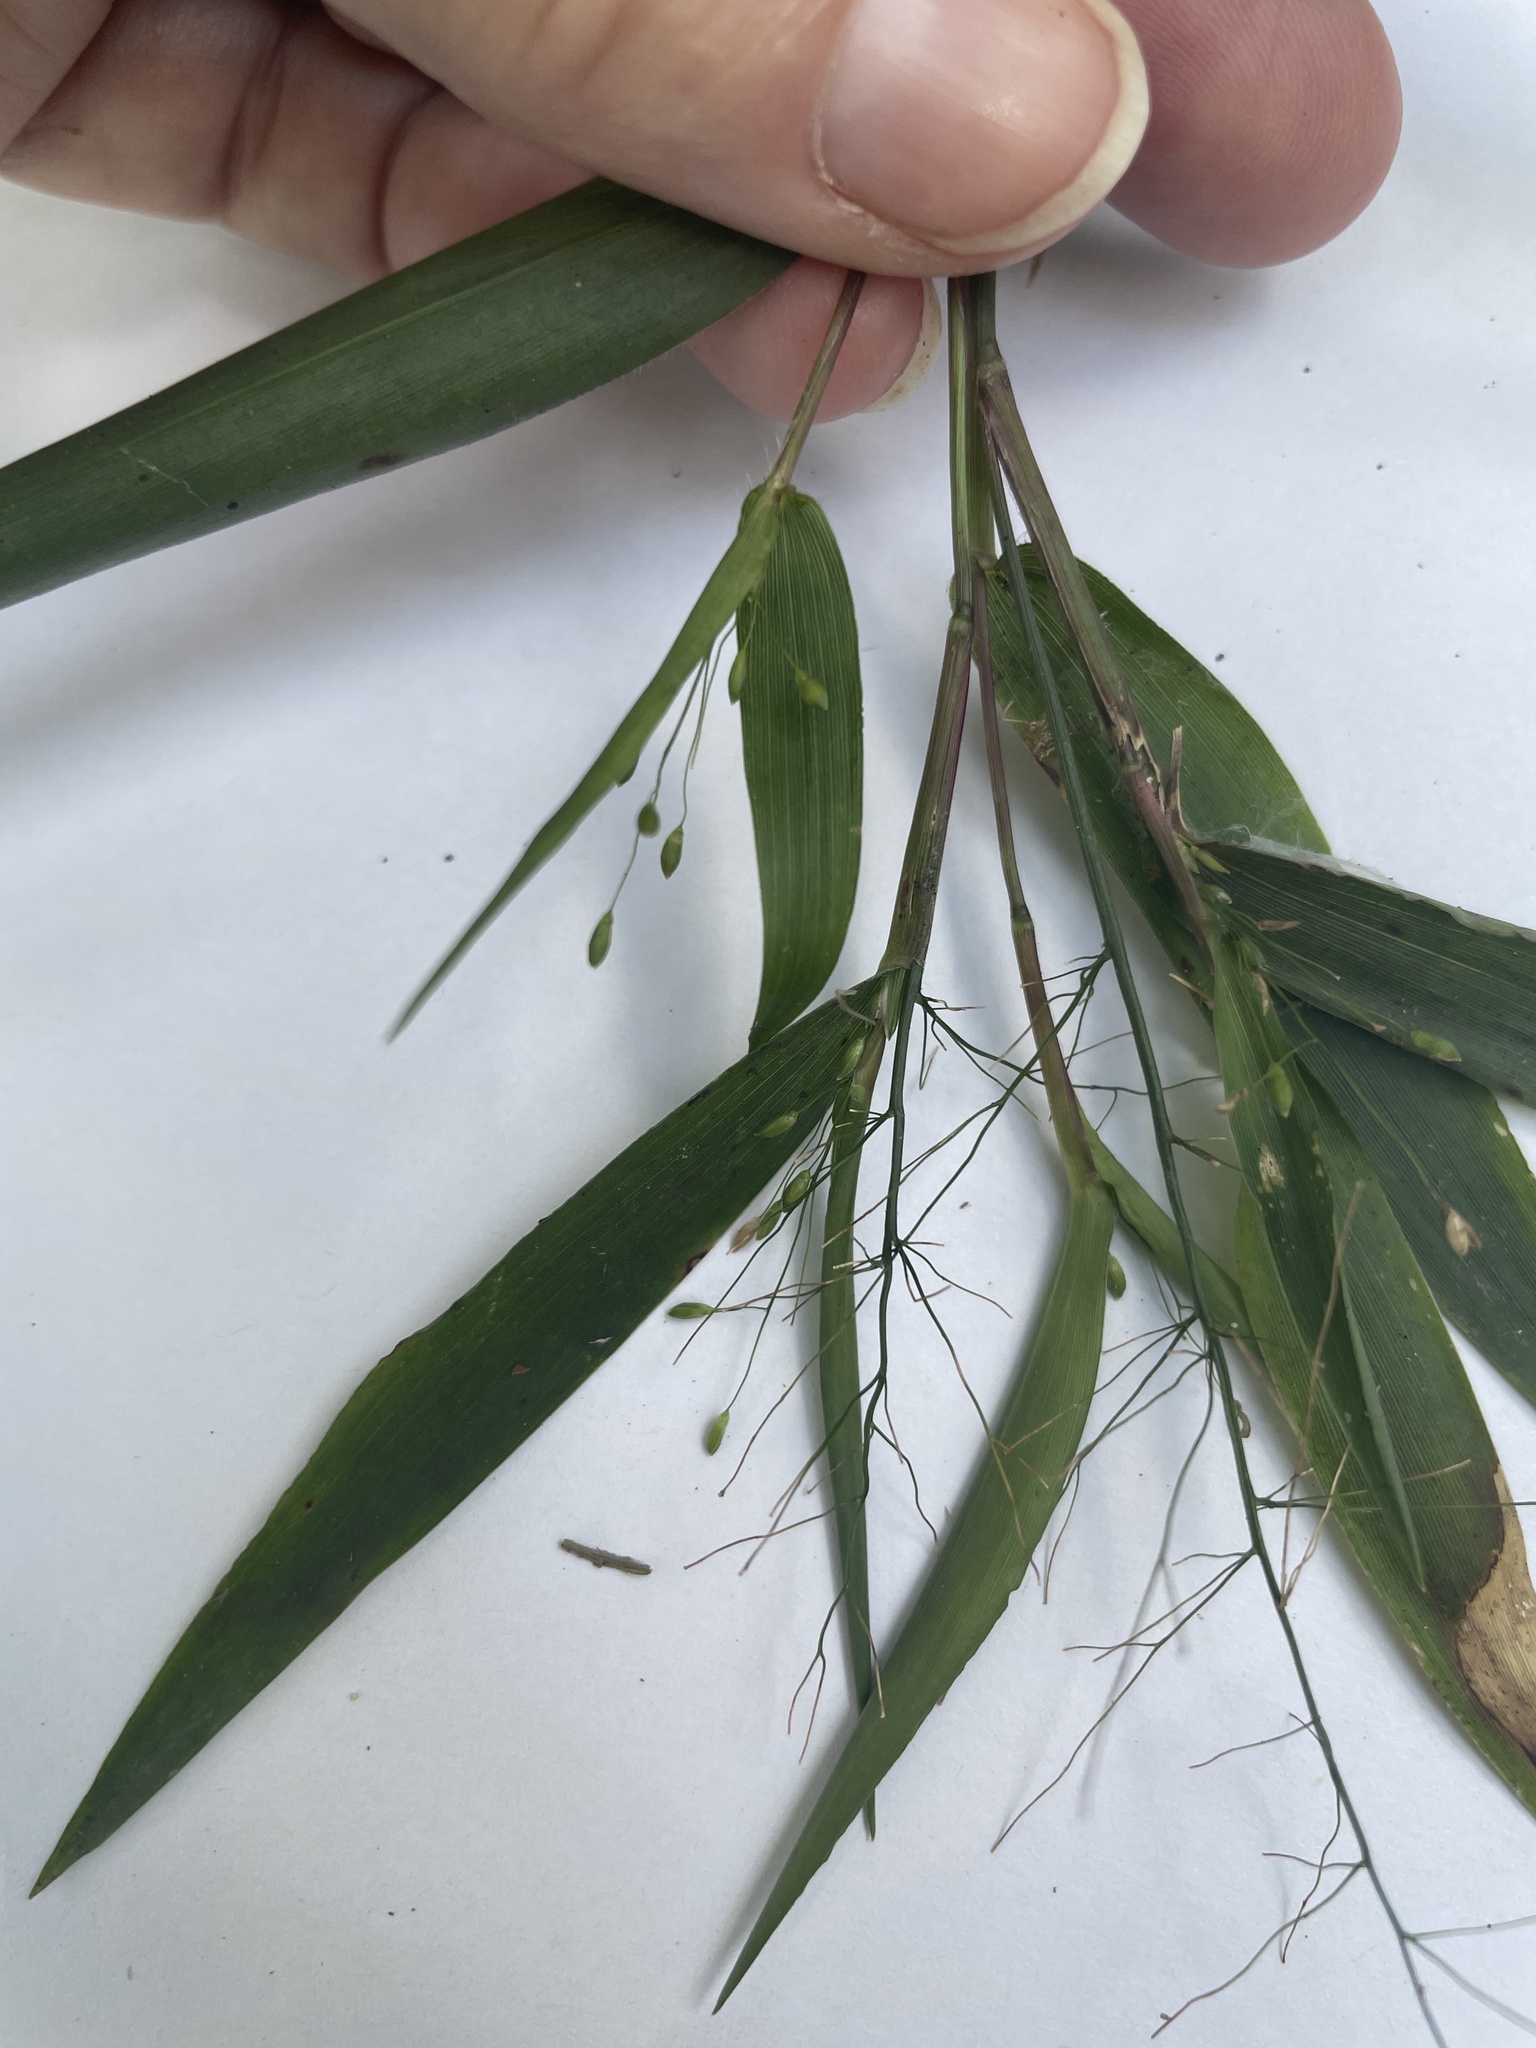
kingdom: Plantae
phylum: Tracheophyta
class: Liliopsida
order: Poales
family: Poaceae
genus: Dichanthelium
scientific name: Dichanthelium commutatum
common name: Variable witchgrass
